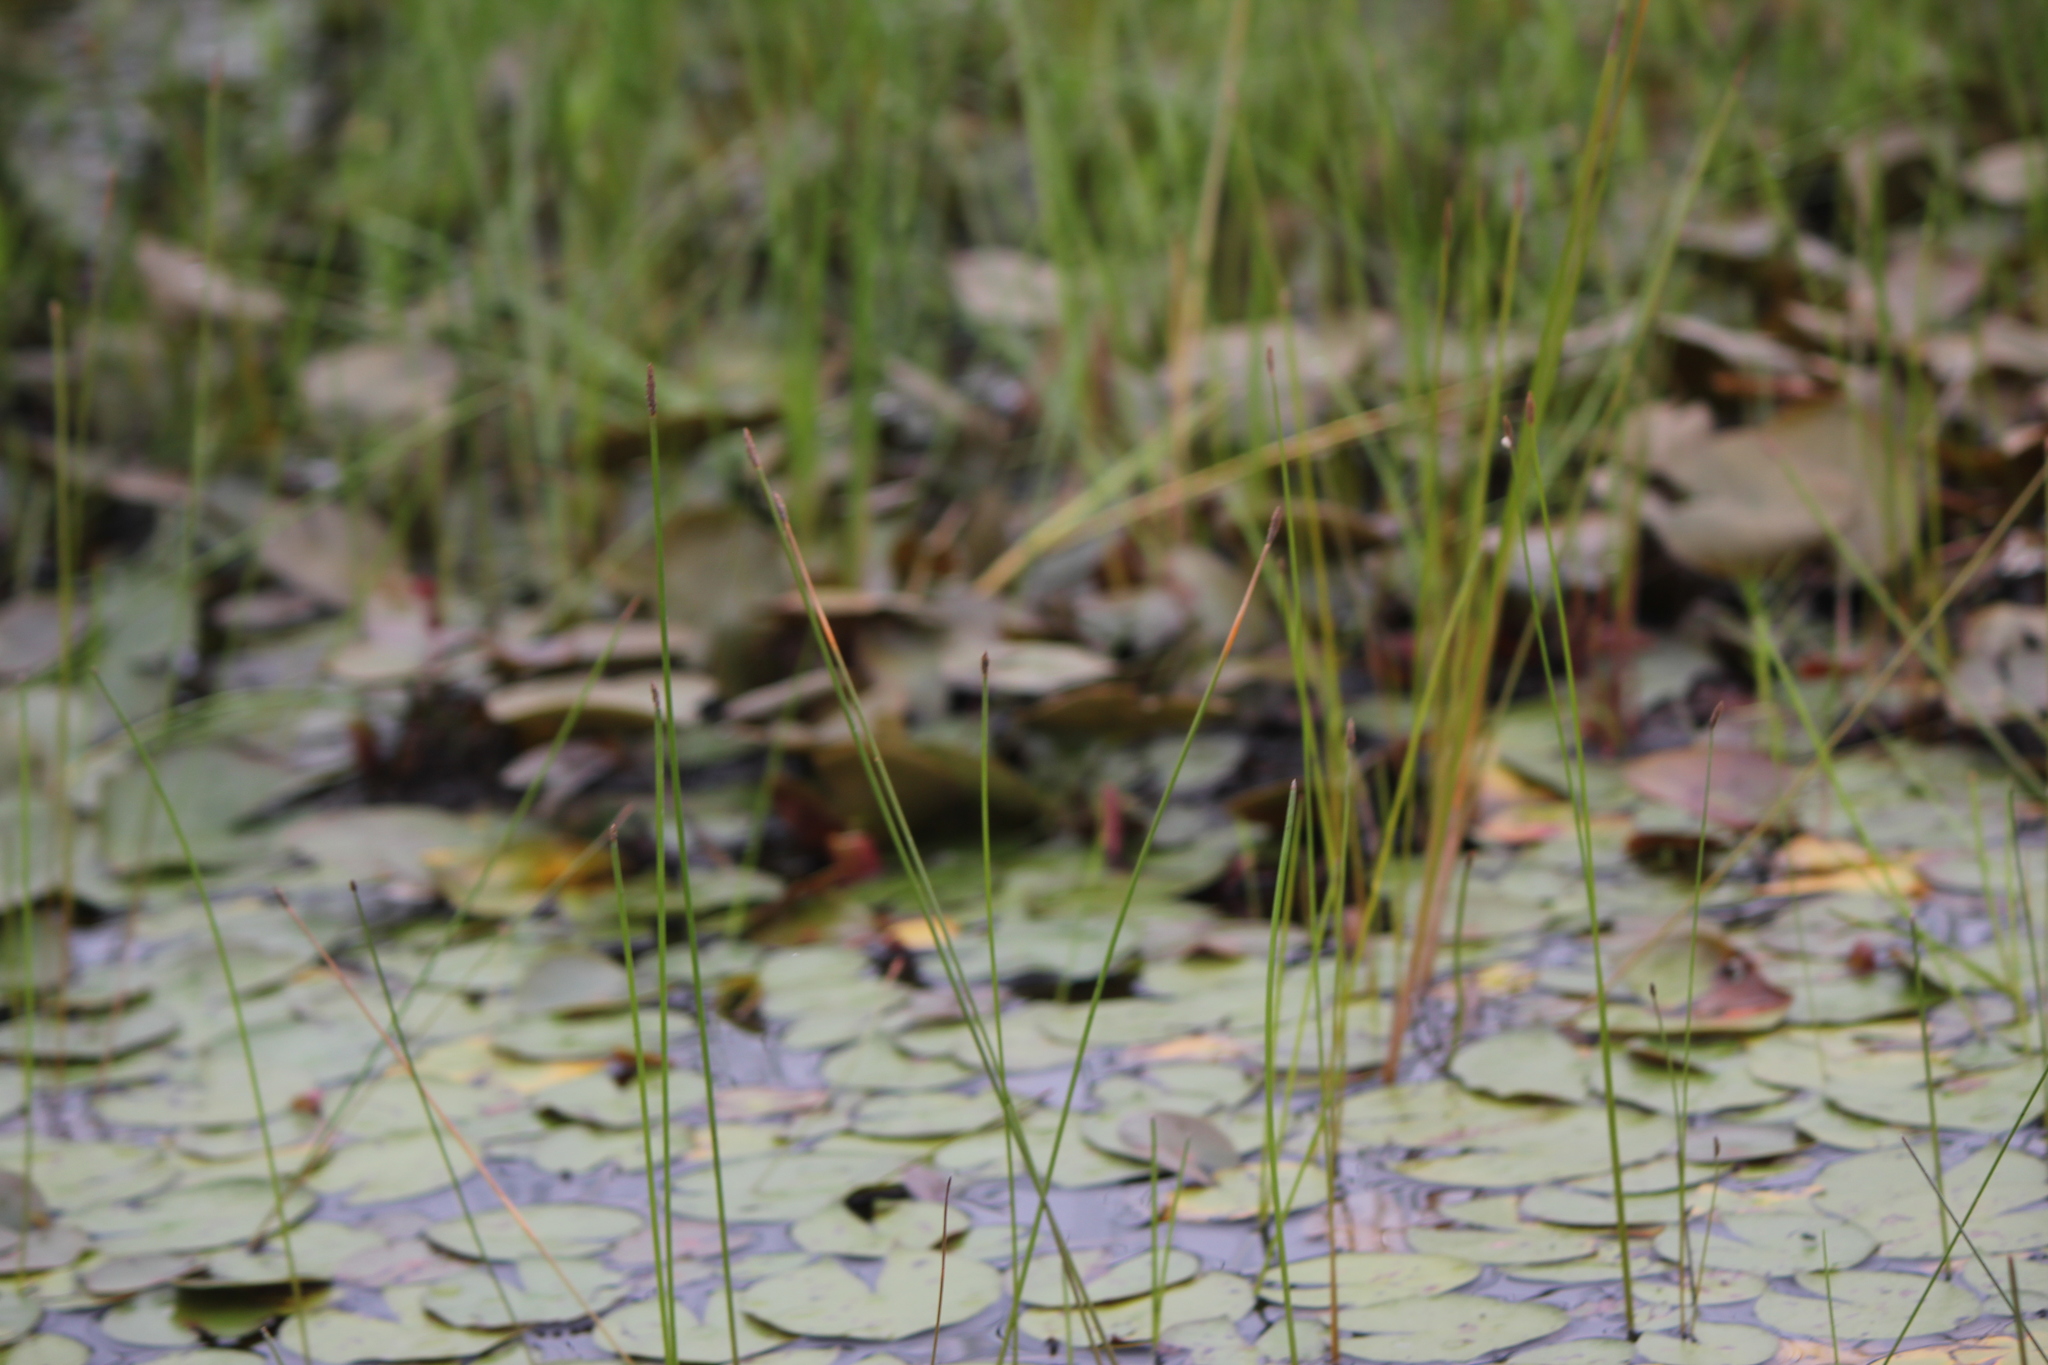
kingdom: Plantae
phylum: Tracheophyta
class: Liliopsida
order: Poales
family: Cyperaceae
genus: Eleocharis
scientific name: Eleocharis palustris
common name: Common spike-rush
